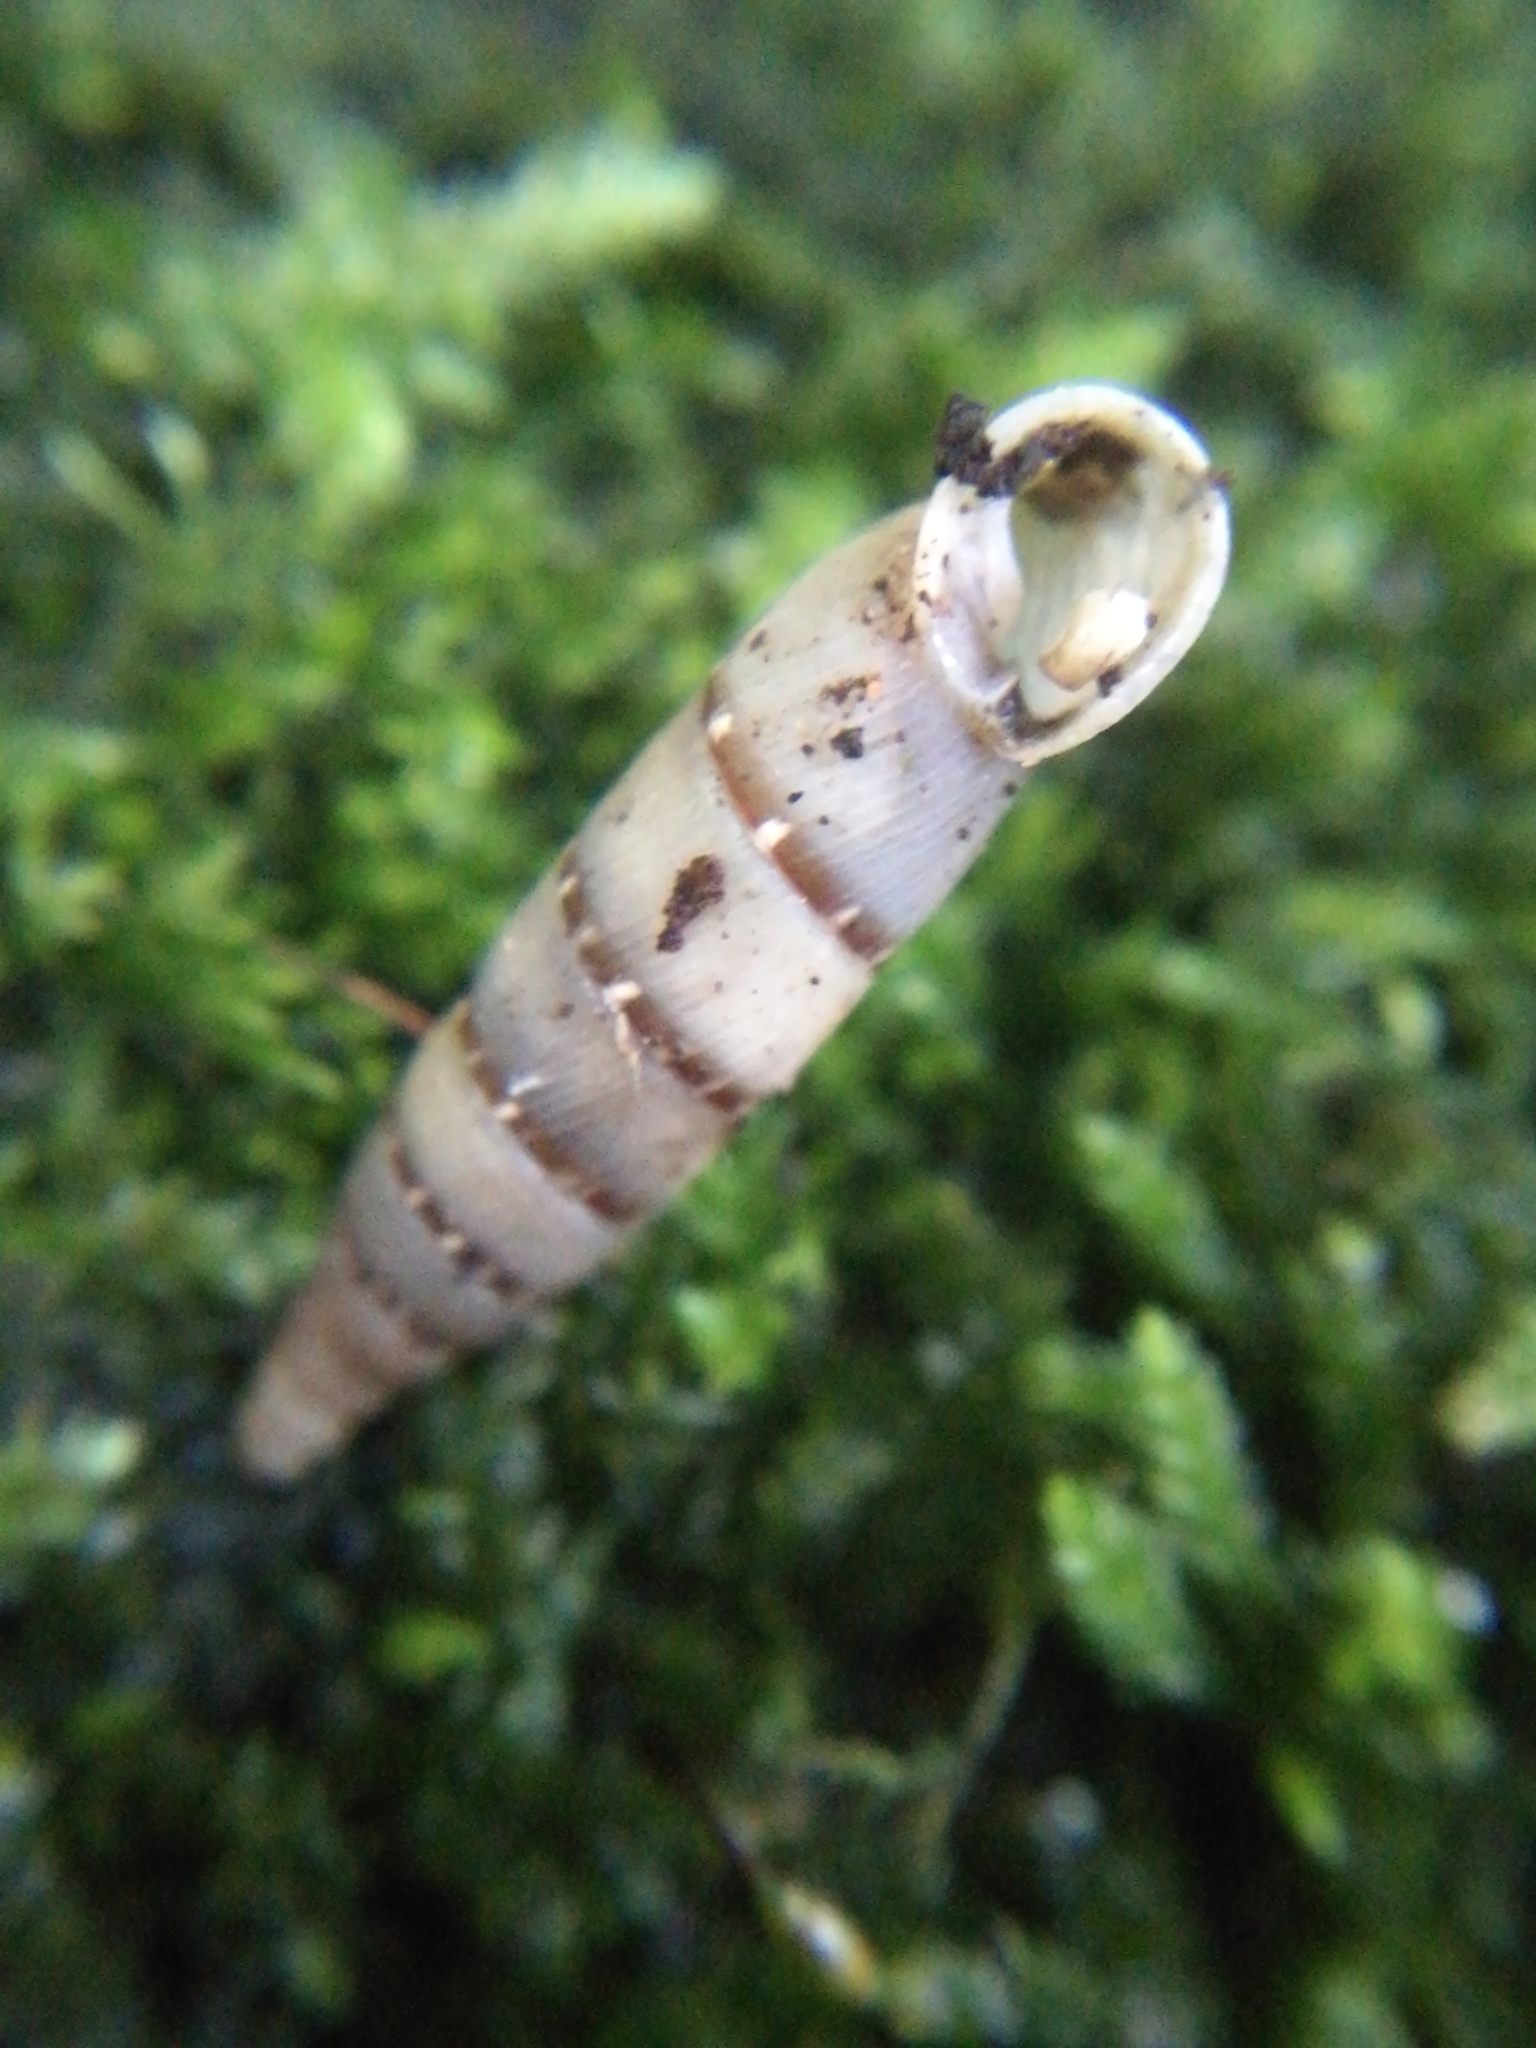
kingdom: Animalia
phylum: Mollusca
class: Gastropoda
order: Stylommatophora
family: Clausiliidae
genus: Papillifera
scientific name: Papillifera papillaris
